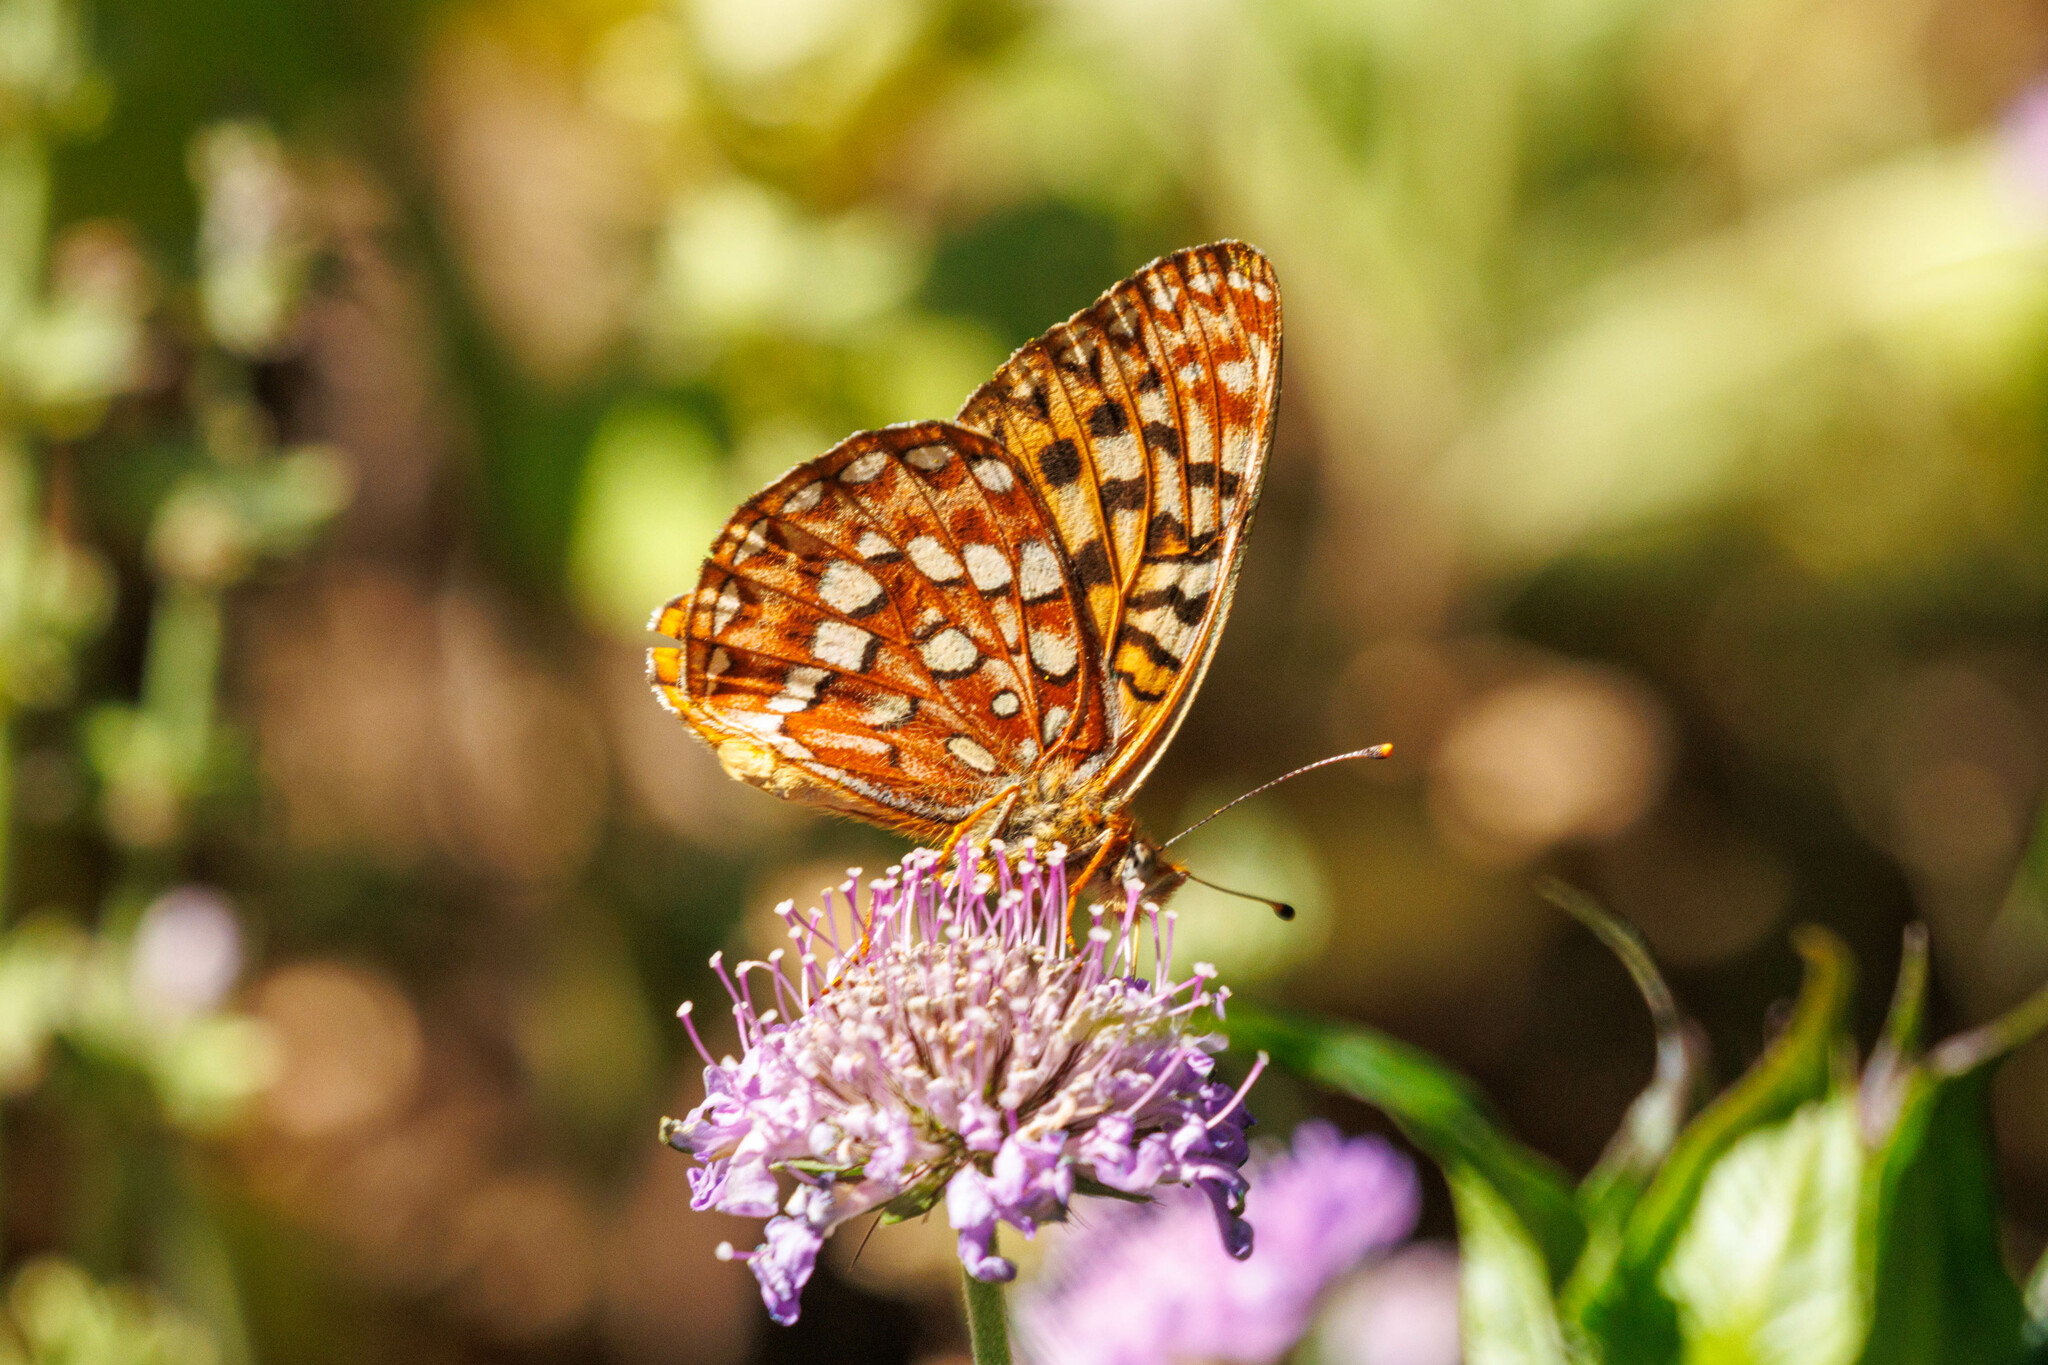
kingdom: Animalia
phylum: Arthropoda
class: Insecta
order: Lepidoptera
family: Nymphalidae
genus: Speyeria
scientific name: Speyeria hydaspe
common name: Hydaspe fritillary
